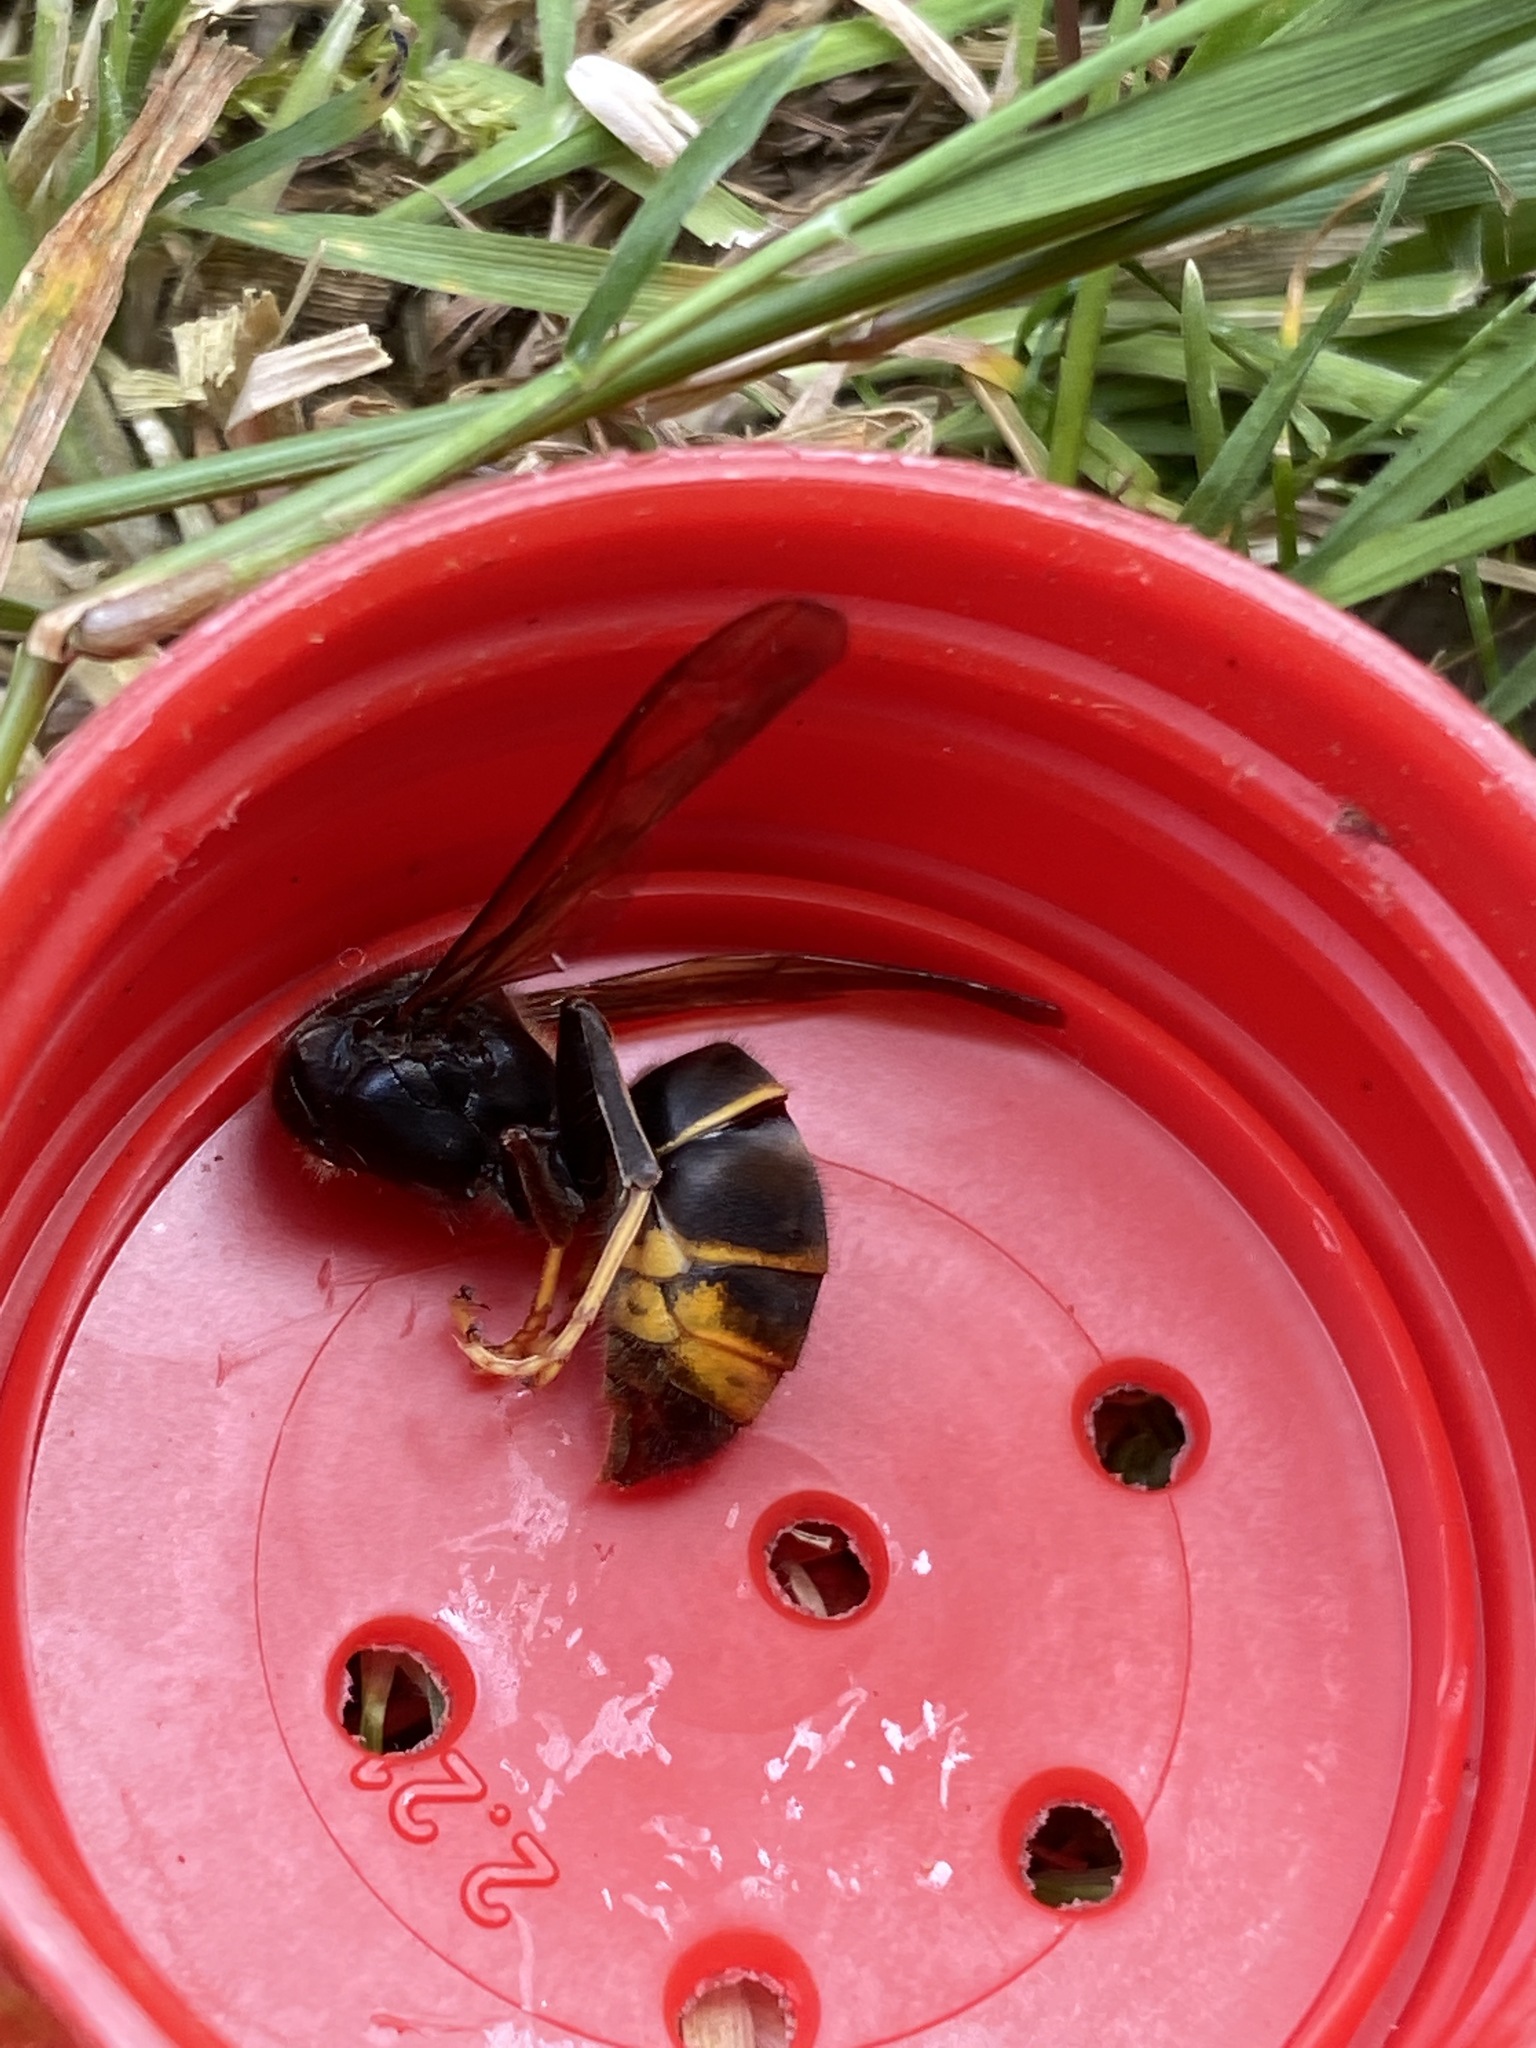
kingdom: Animalia
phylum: Arthropoda
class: Insecta
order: Hymenoptera
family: Vespidae
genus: Vespa
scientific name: Vespa velutina
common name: Asian hornet
